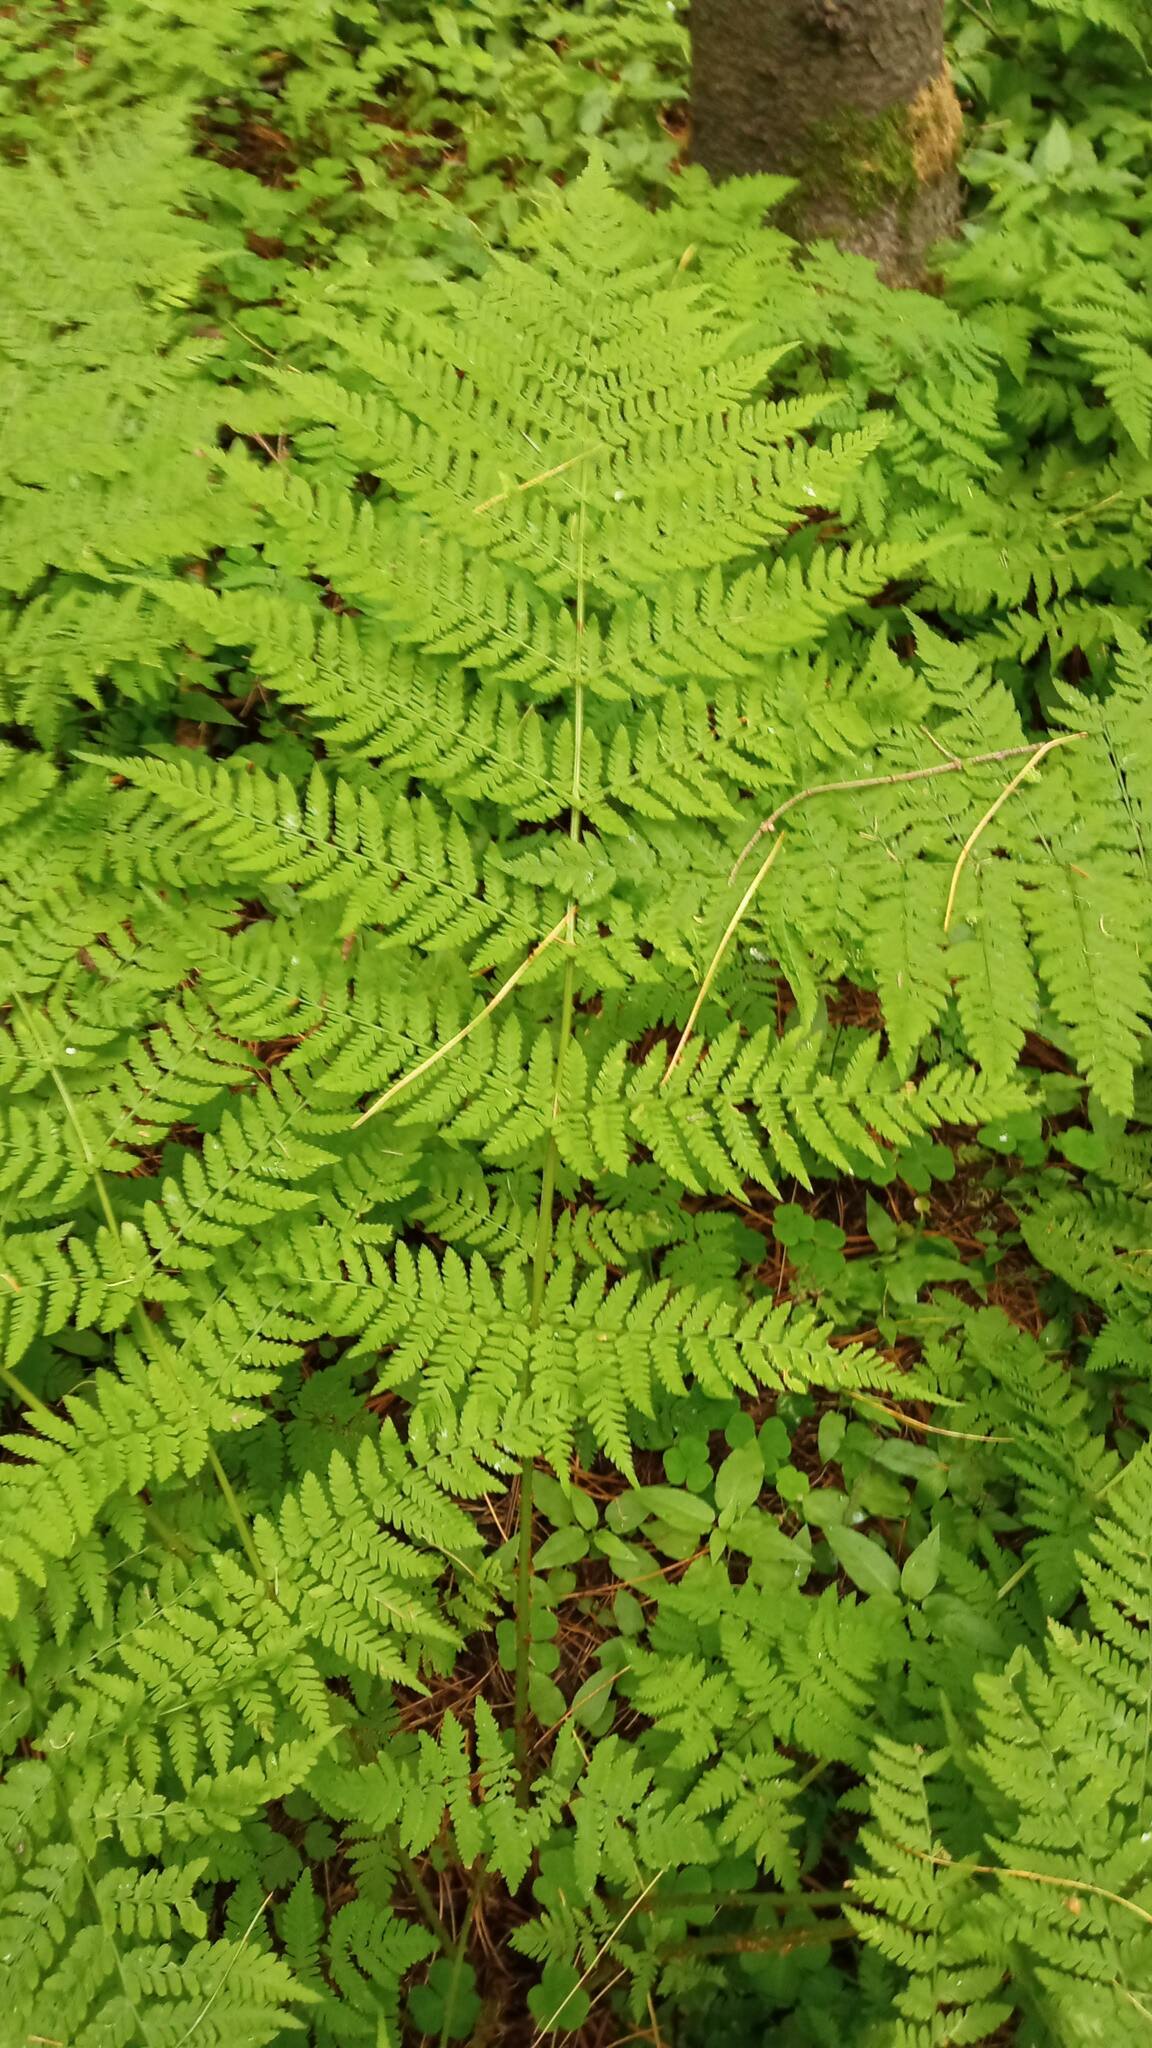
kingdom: Plantae
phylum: Tracheophyta
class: Polypodiopsida
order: Polypodiales
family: Dryopteridaceae
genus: Dryopteris
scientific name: Dryopteris expansa
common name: Northern buckler fern
